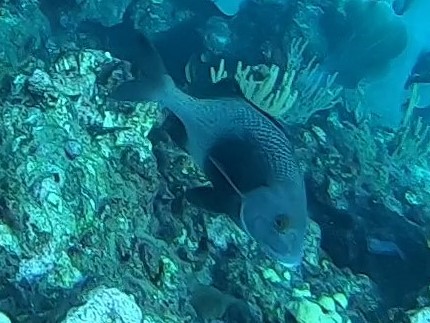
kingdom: Animalia
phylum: Chordata
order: Perciformes
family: Haemulidae
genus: Anisotremus
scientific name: Anisotremus surinamensis
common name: Black margate
